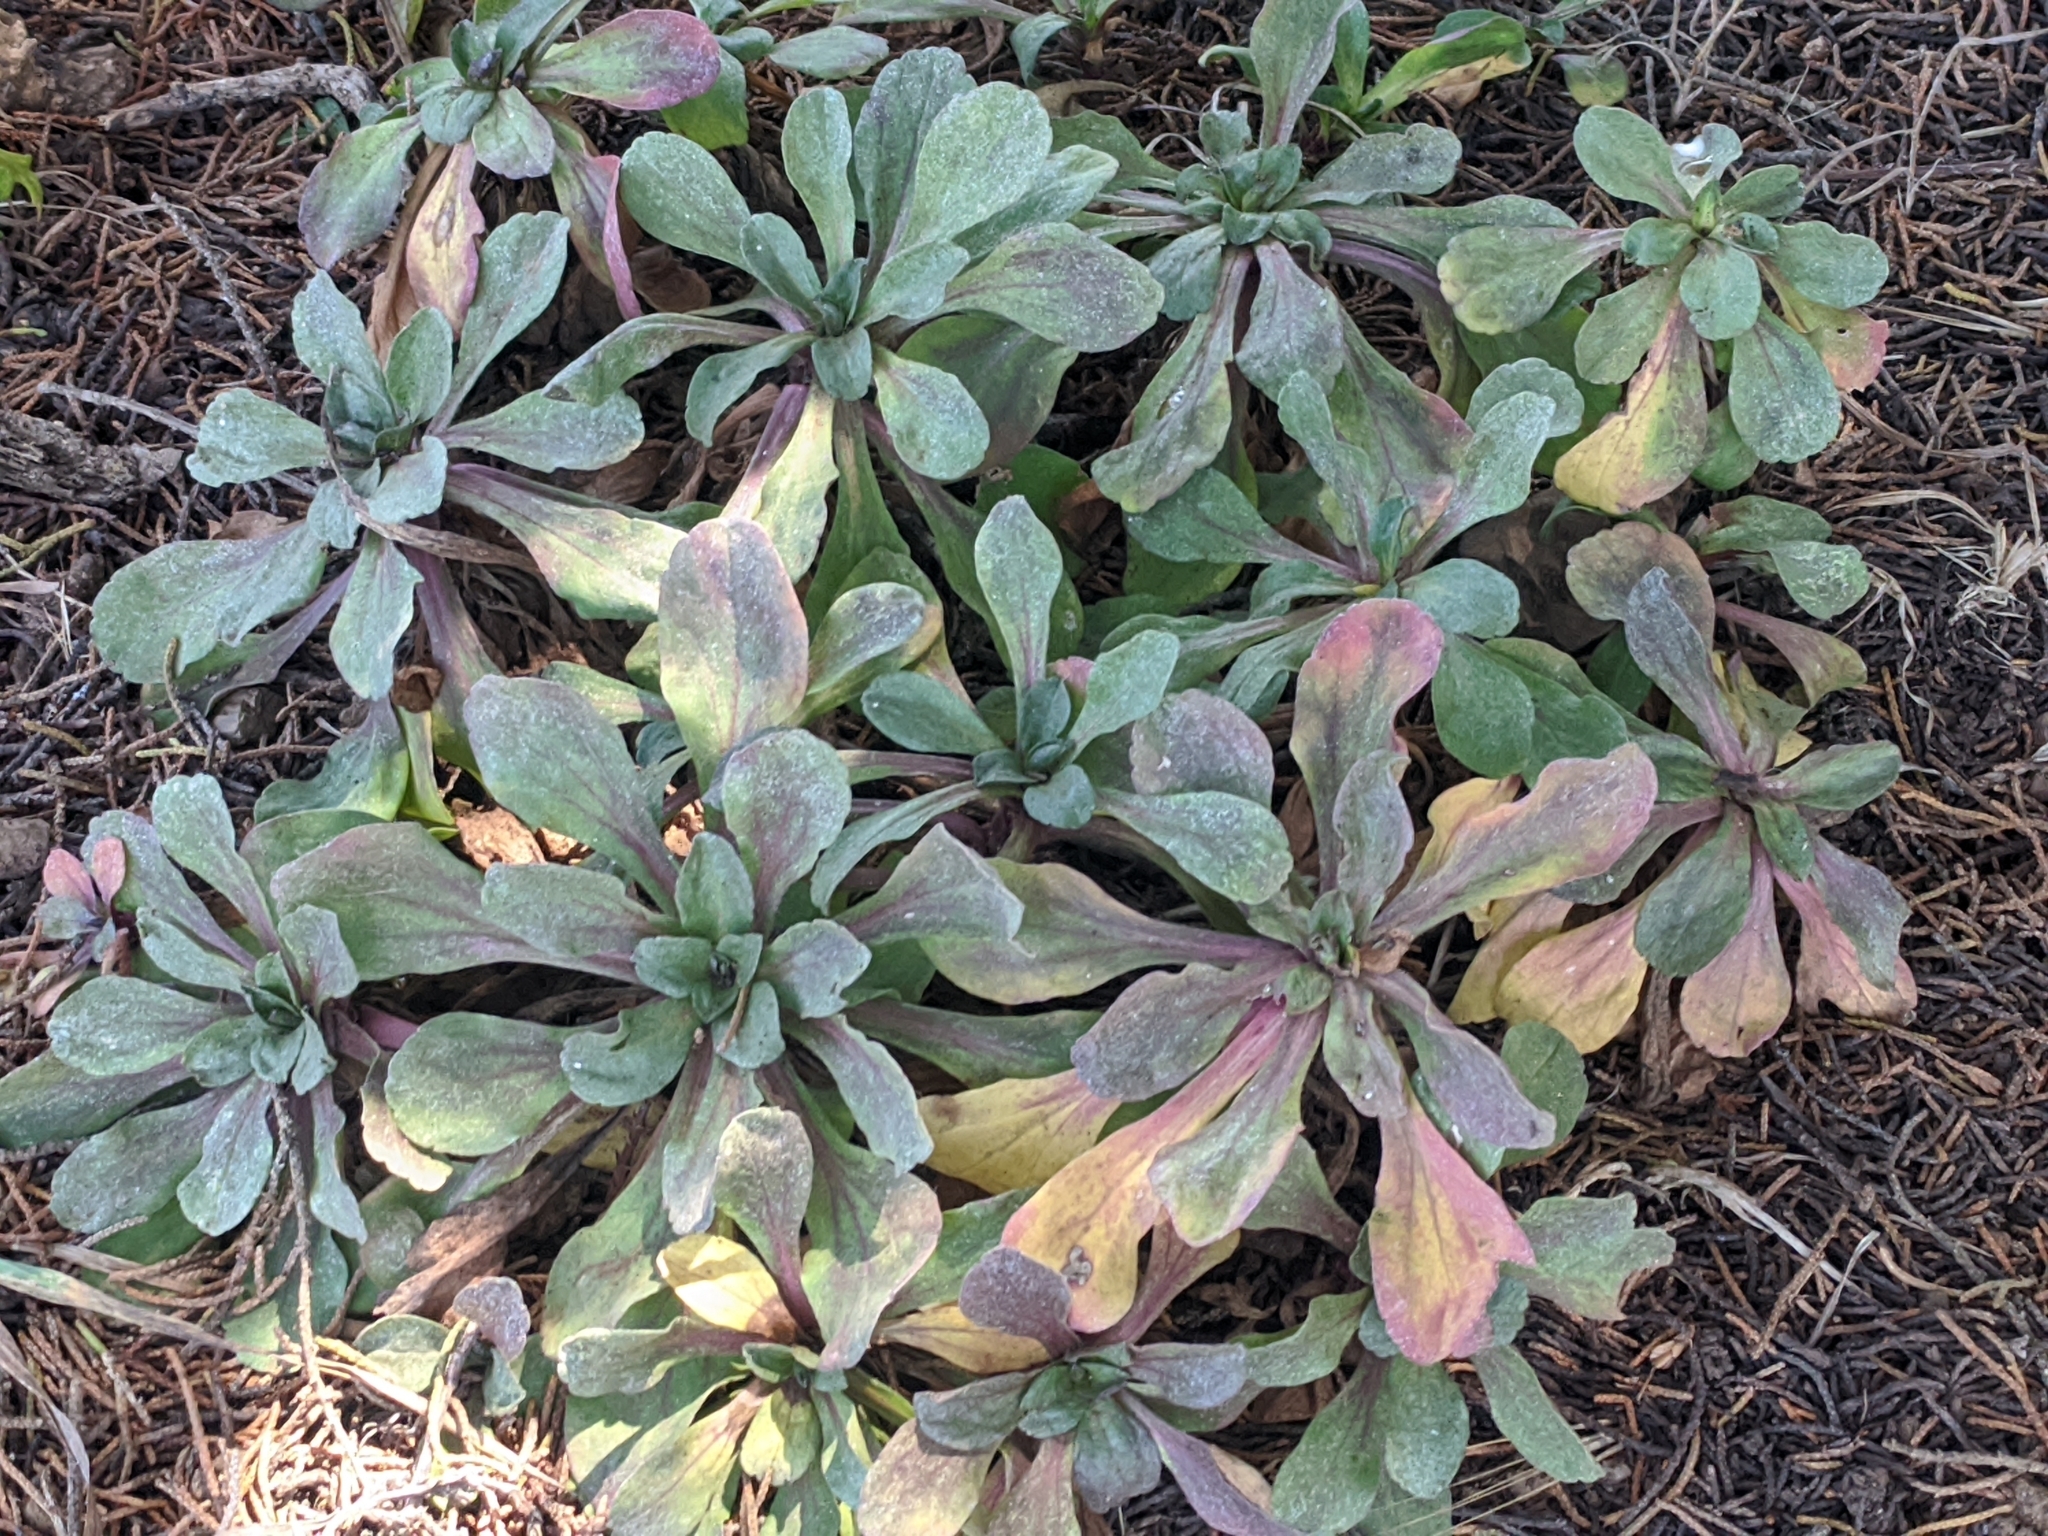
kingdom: Plantae
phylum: Tracheophyta
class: Magnoliopsida
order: Asterales
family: Asteraceae
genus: Erigeron
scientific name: Erigeron glaucus
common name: Seaside daisy
